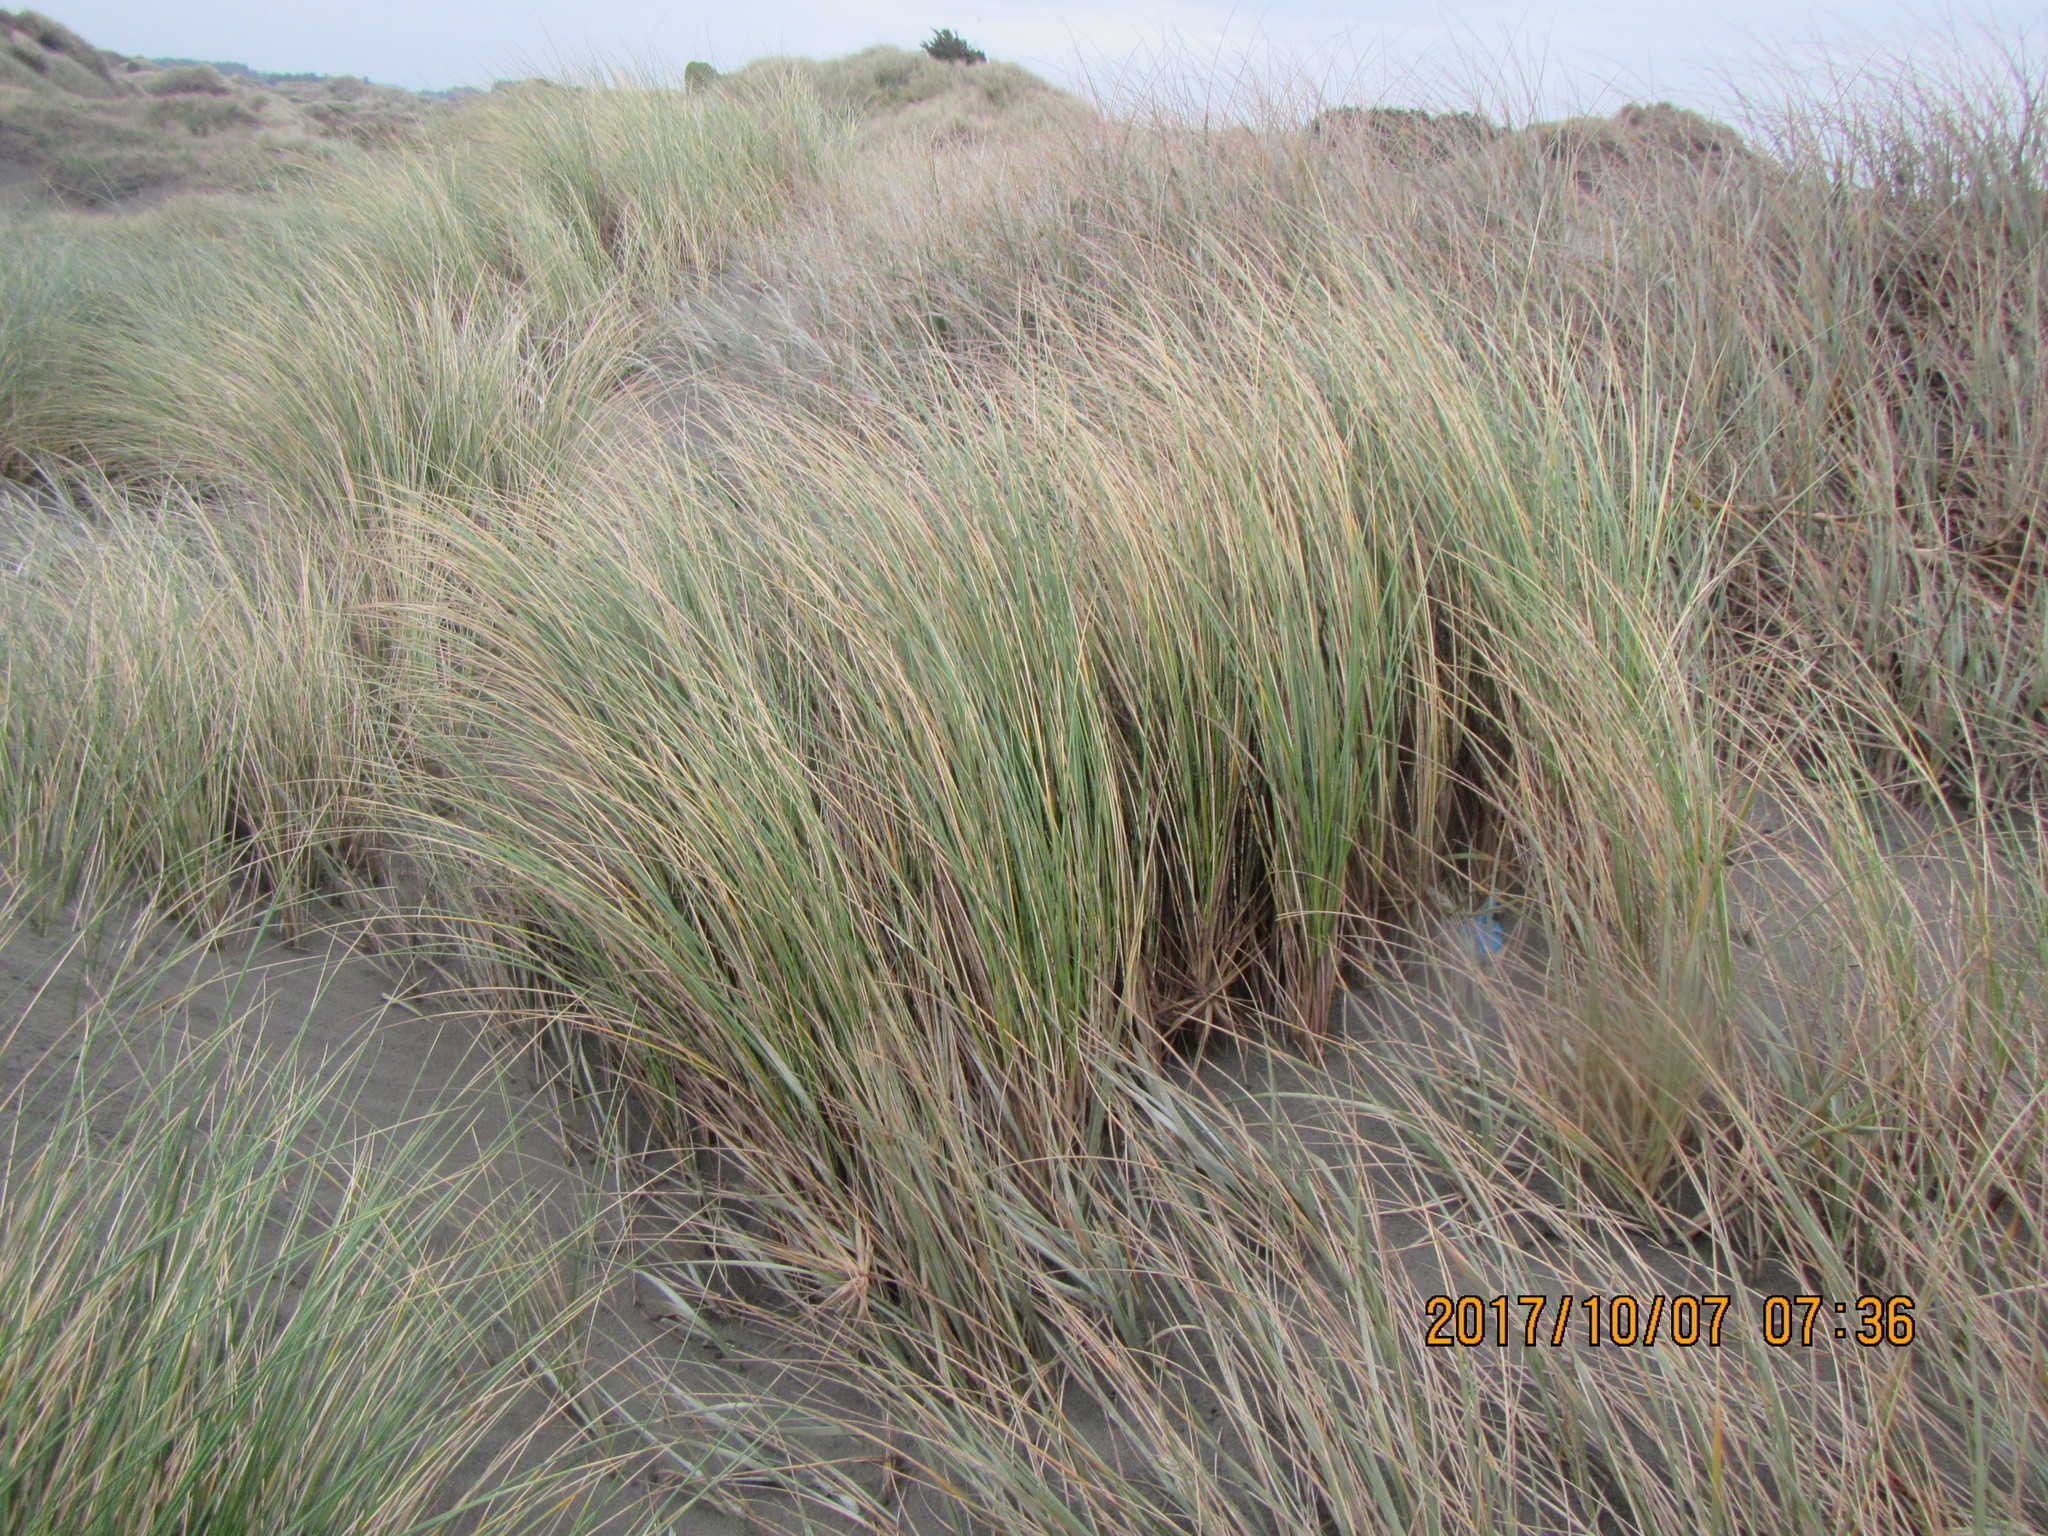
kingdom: Plantae
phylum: Tracheophyta
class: Liliopsida
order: Poales
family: Poaceae
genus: Calamagrostis
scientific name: Calamagrostis arenaria
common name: European beachgrass
